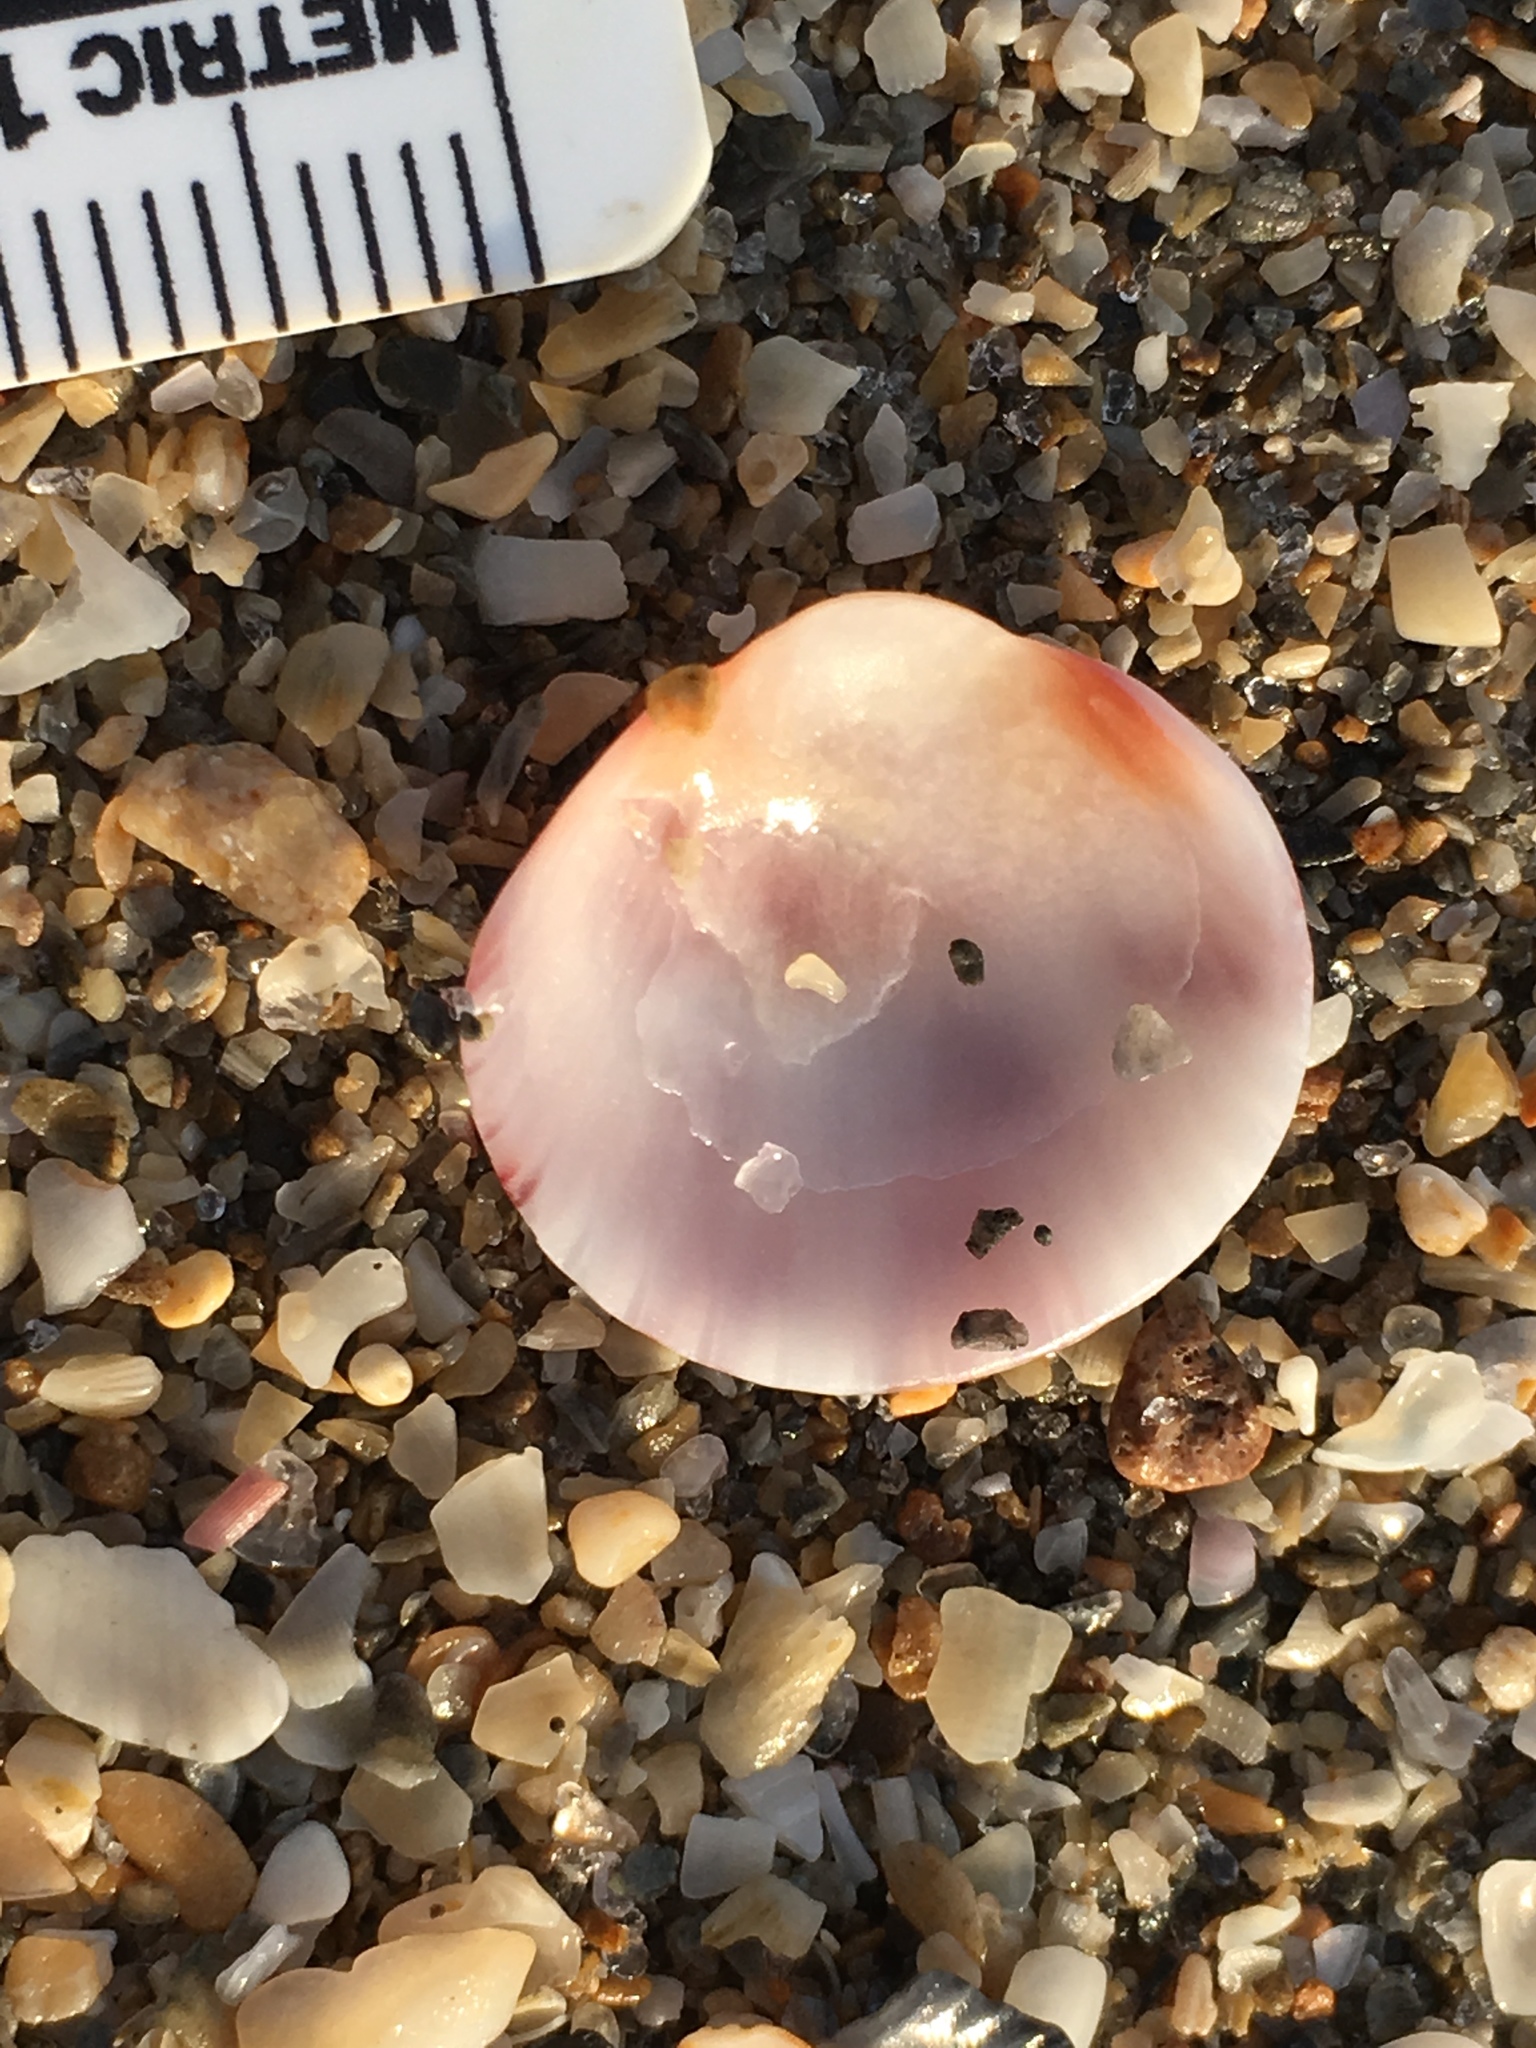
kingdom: Animalia
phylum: Mollusca
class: Bivalvia
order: Pectinida
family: Pectinidae
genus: Argopecten
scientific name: Argopecten gibbus
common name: Atlantic calico scallop
